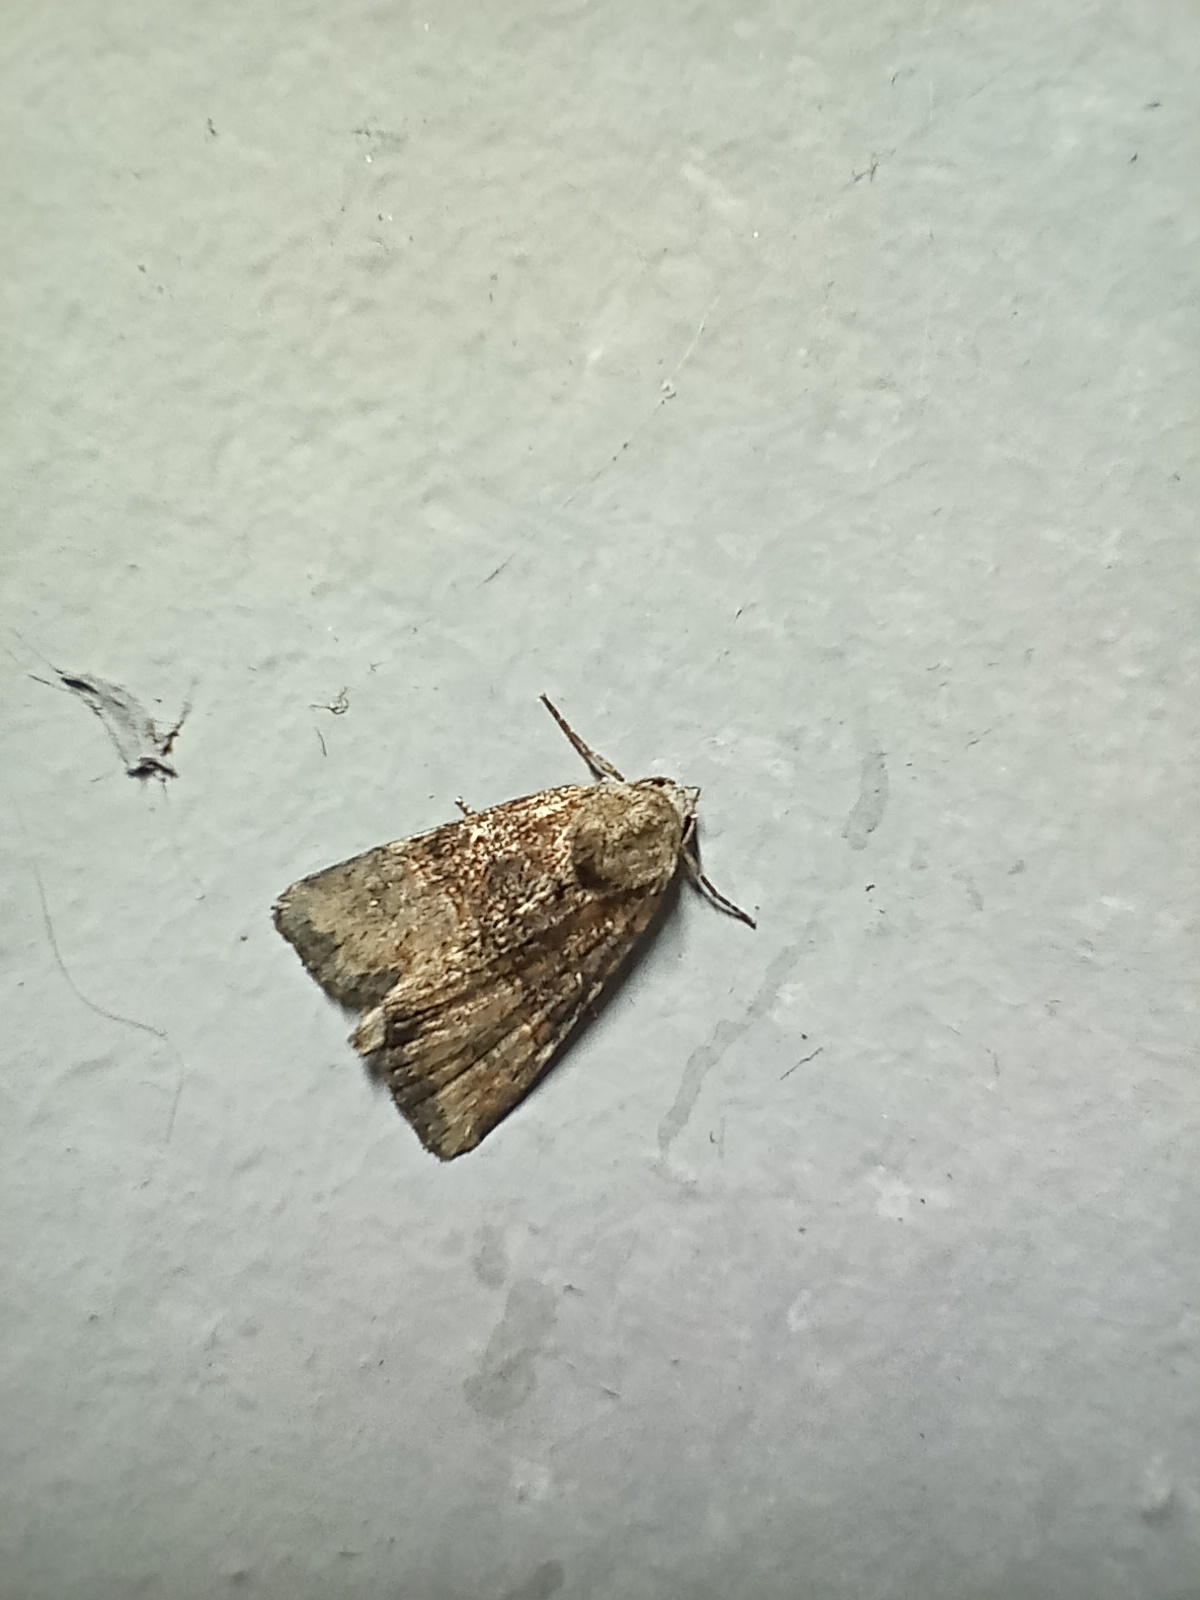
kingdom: Animalia
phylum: Arthropoda
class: Insecta
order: Lepidoptera
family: Noctuidae
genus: Mesoligia
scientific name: Mesoligia furuncula
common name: Cloaked minor
